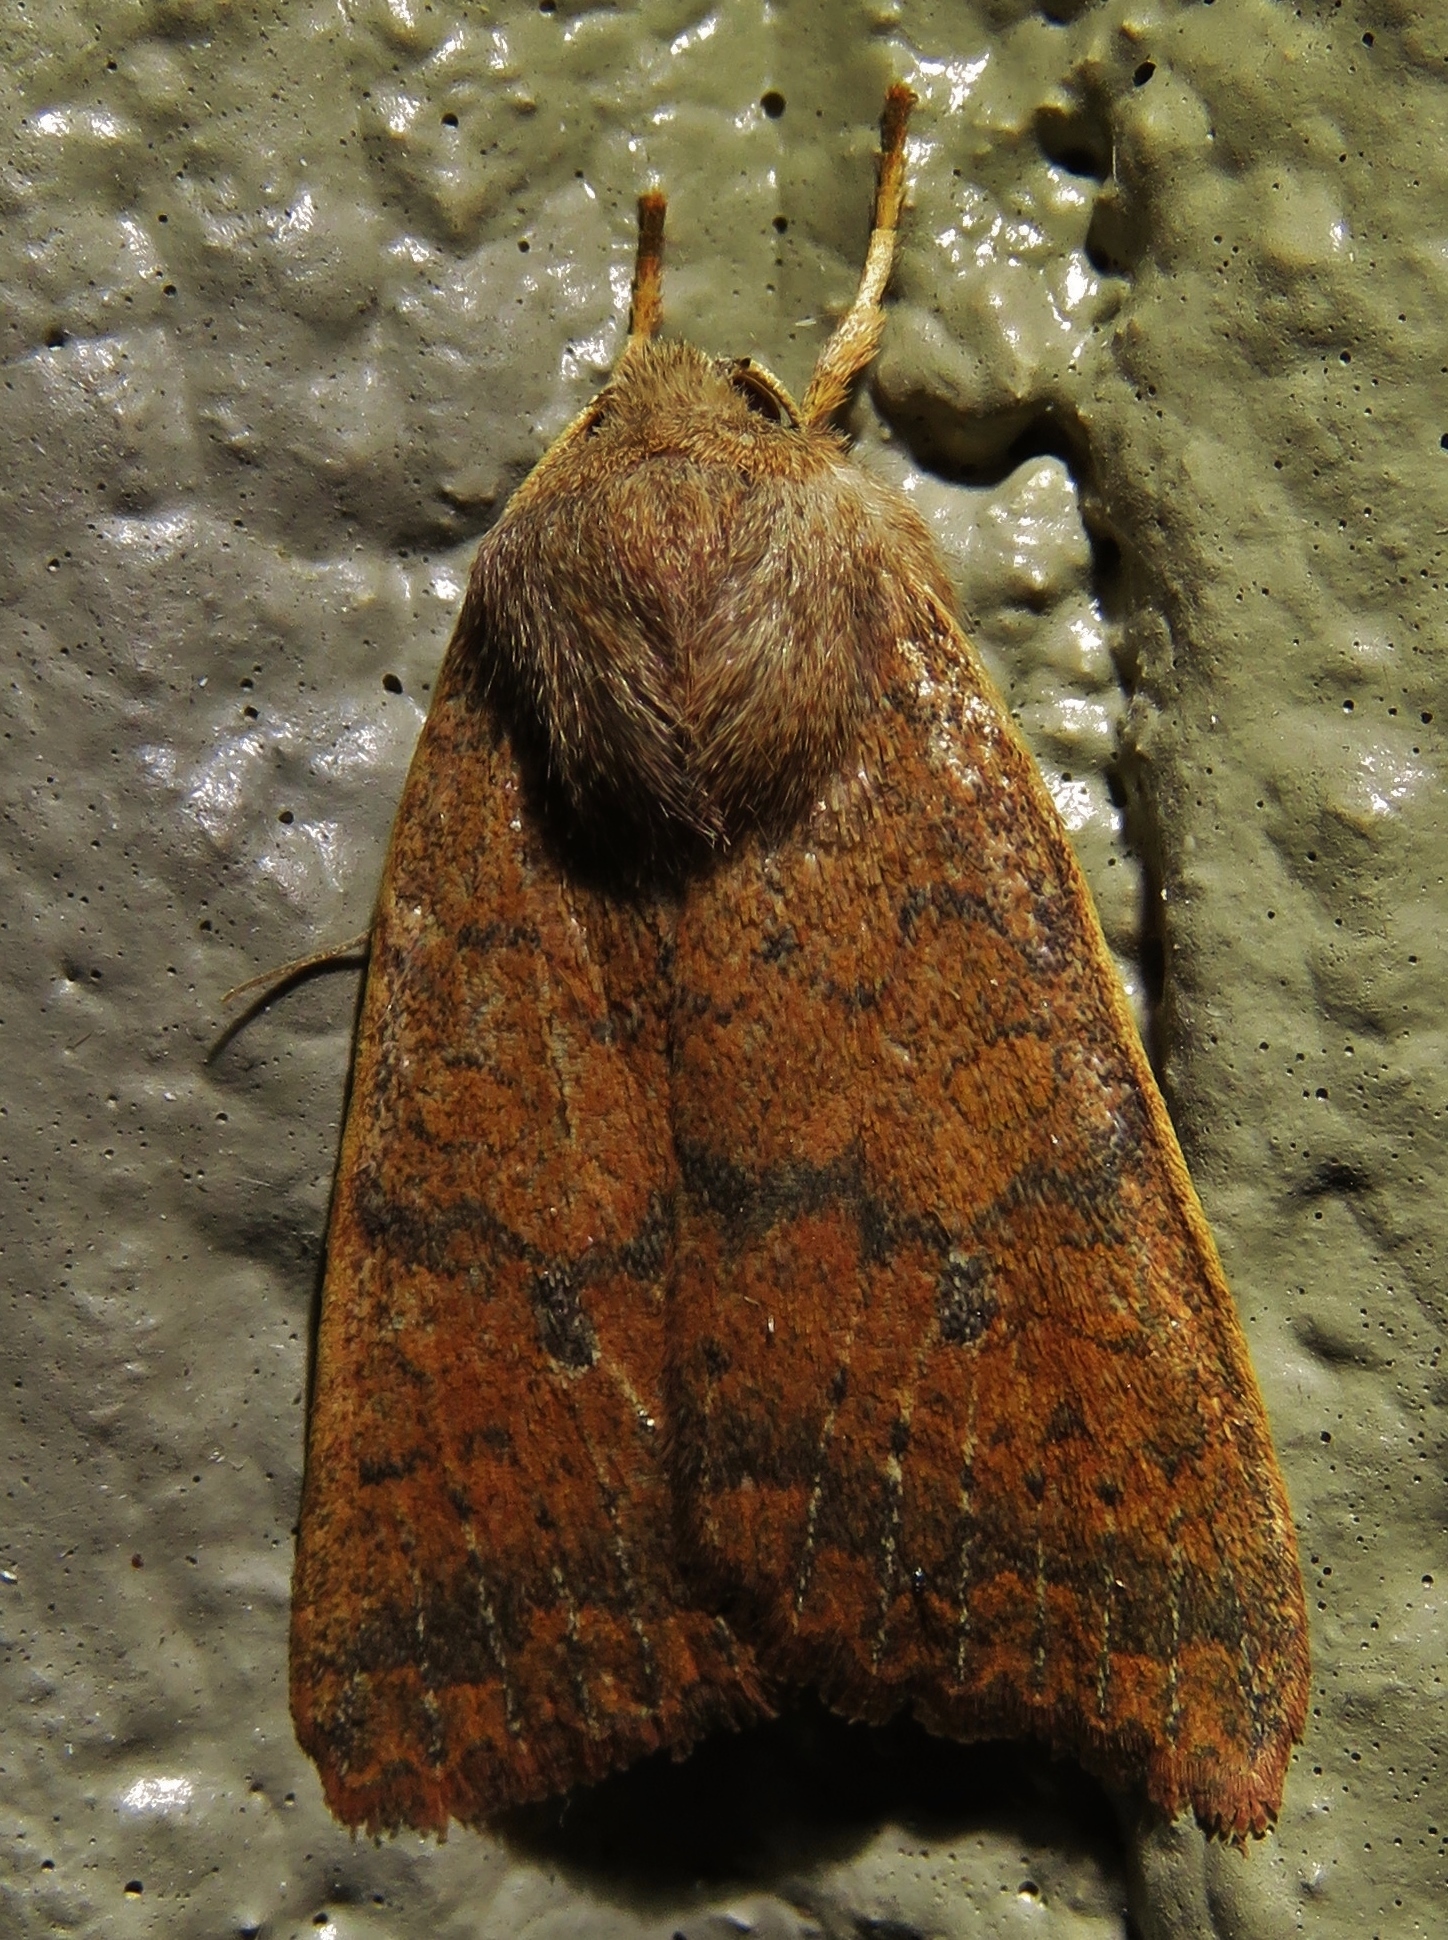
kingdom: Animalia
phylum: Arthropoda
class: Insecta
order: Lepidoptera
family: Noctuidae
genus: Agrochola
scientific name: Agrochola bicolorago
